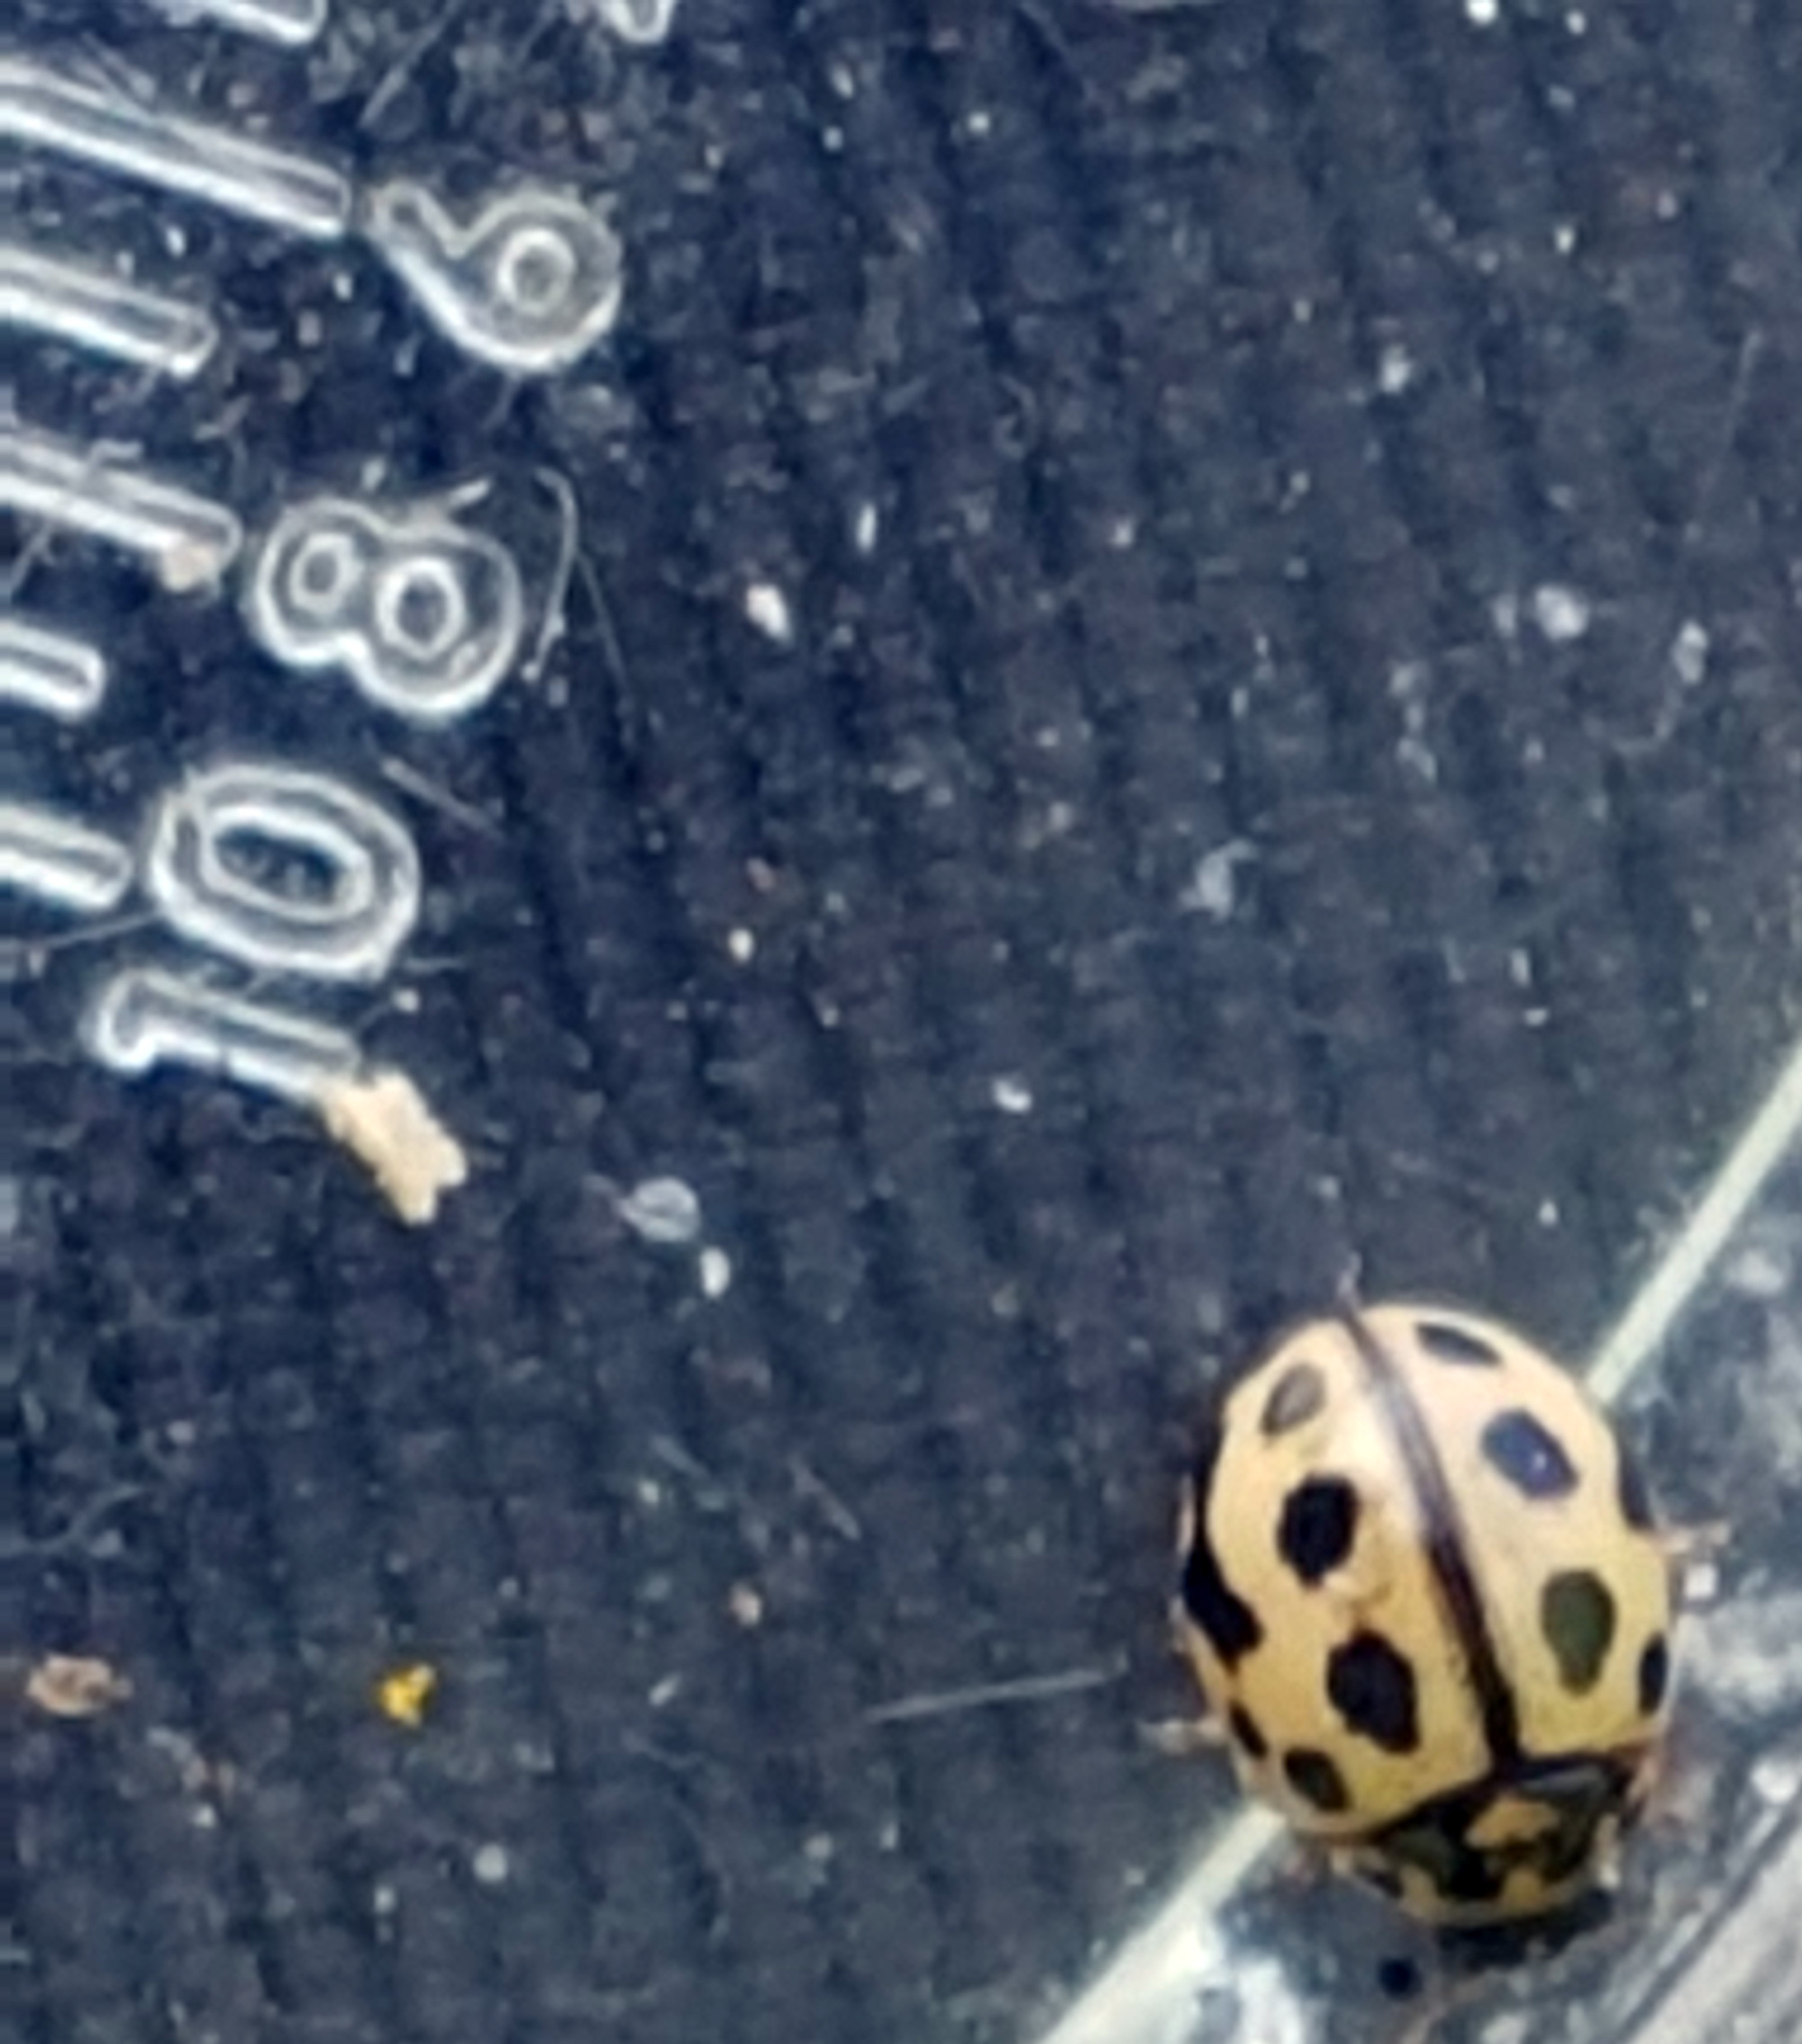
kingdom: Animalia
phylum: Arthropoda
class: Insecta
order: Coleoptera
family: Coccinellidae
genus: Tytthaspis
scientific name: Tytthaspis sedecimpunctata
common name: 16-spot ladybird
